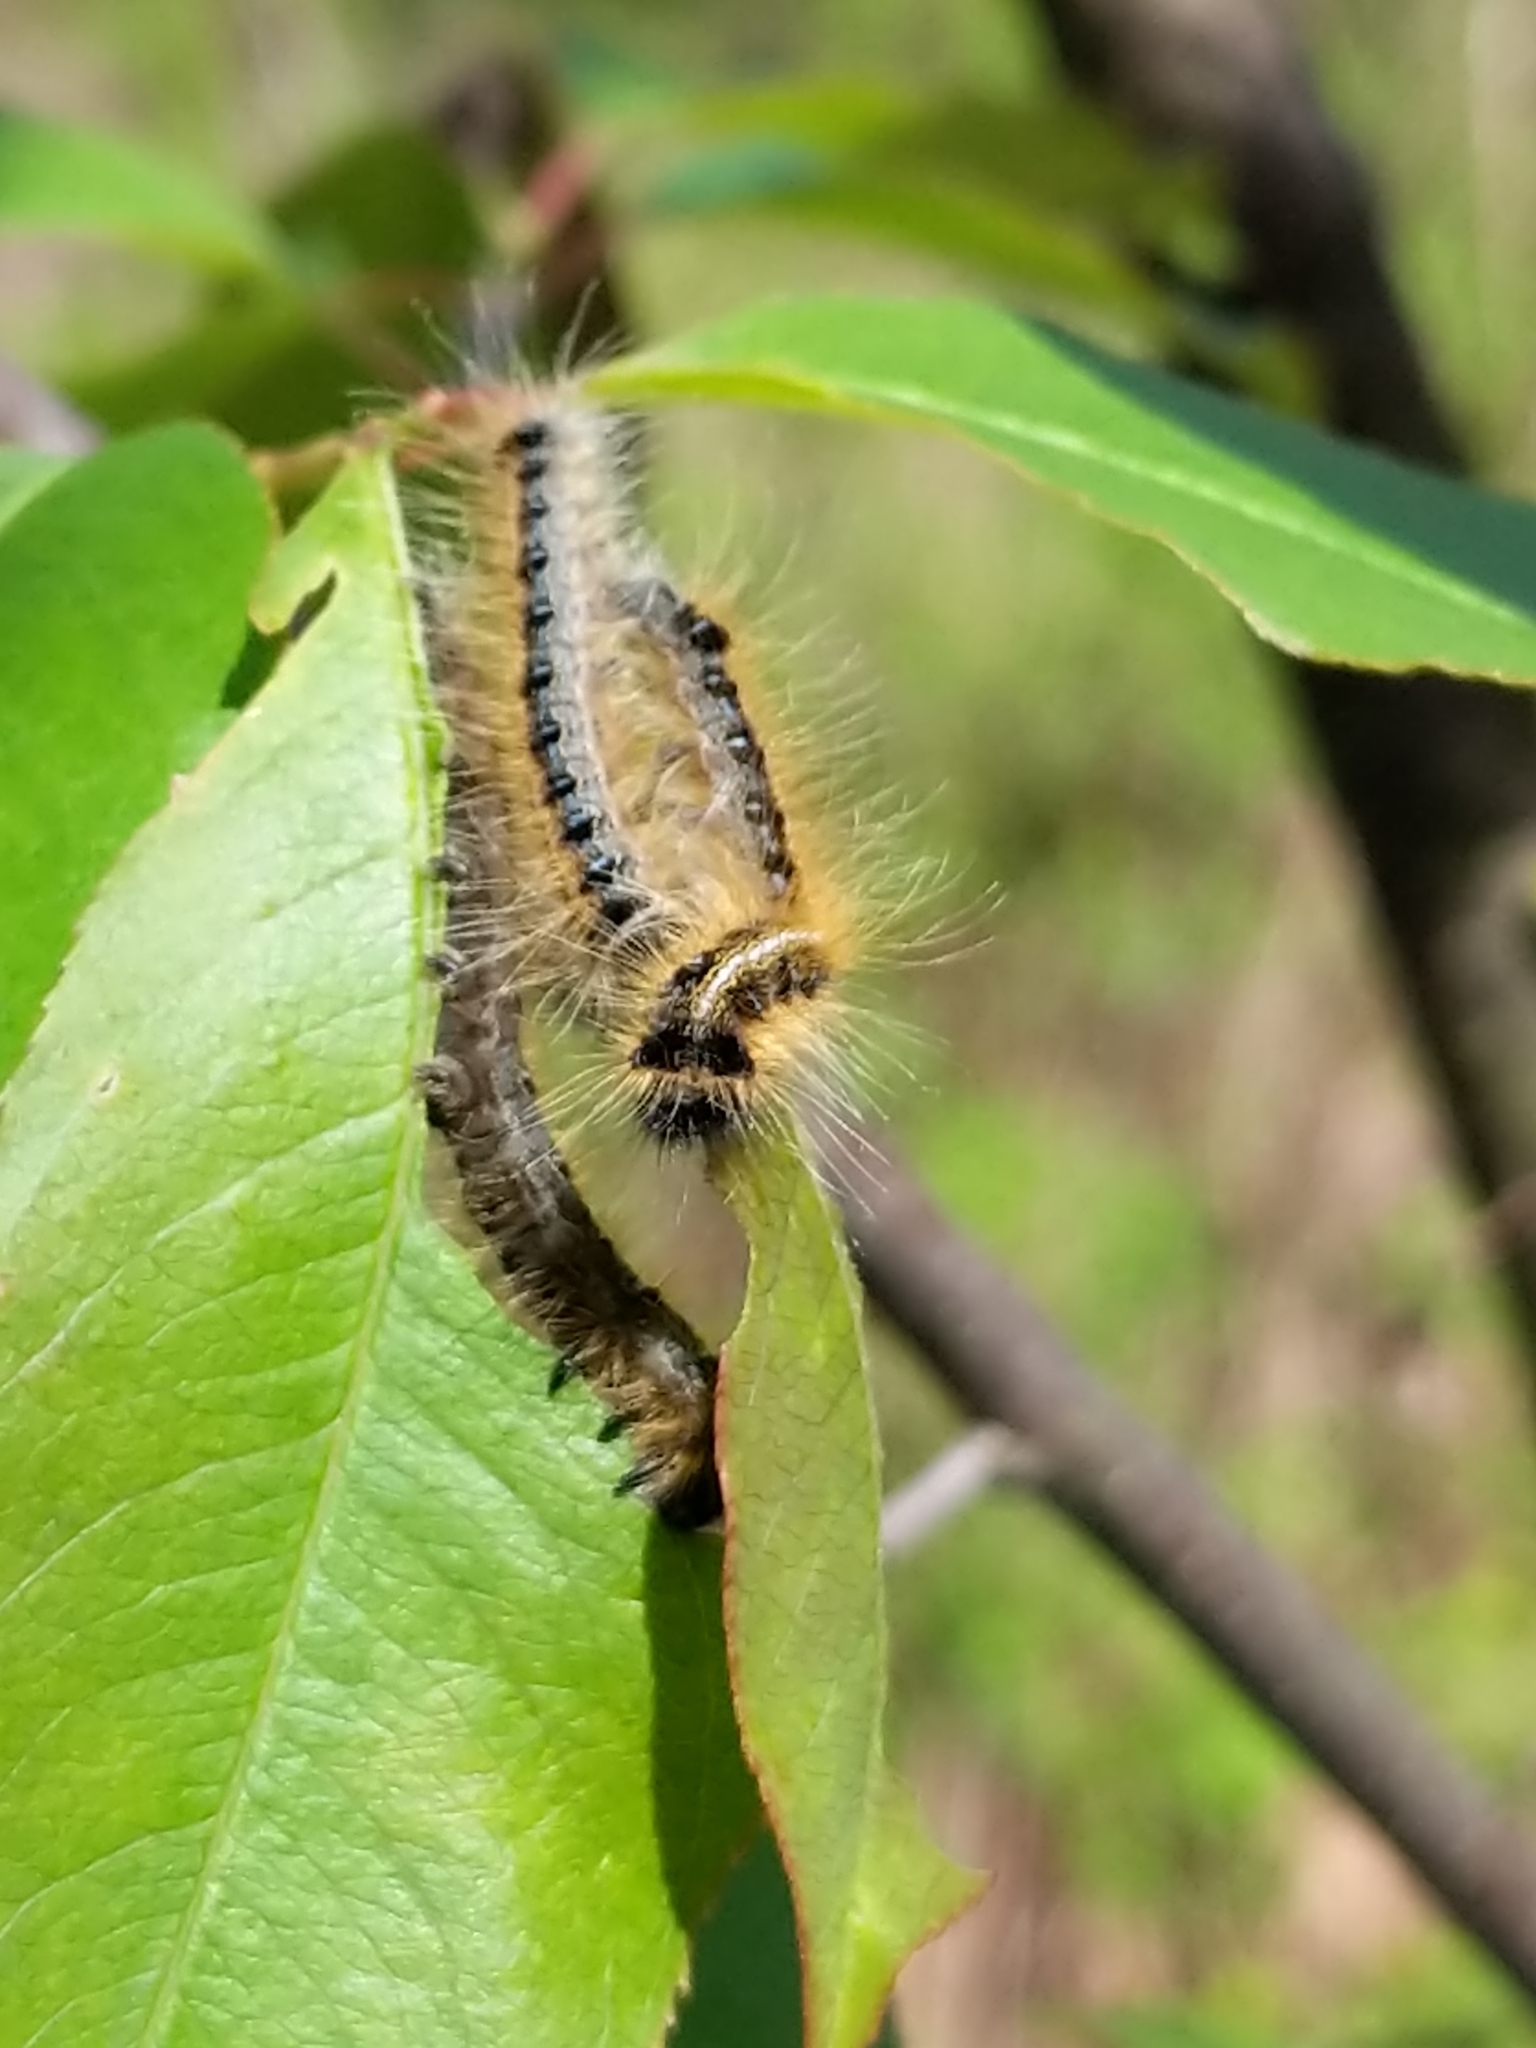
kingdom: Animalia
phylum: Arthropoda
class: Insecta
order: Lepidoptera
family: Lasiocampidae
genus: Malacosoma
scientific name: Malacosoma americana
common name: Eastern tent caterpillar moth
